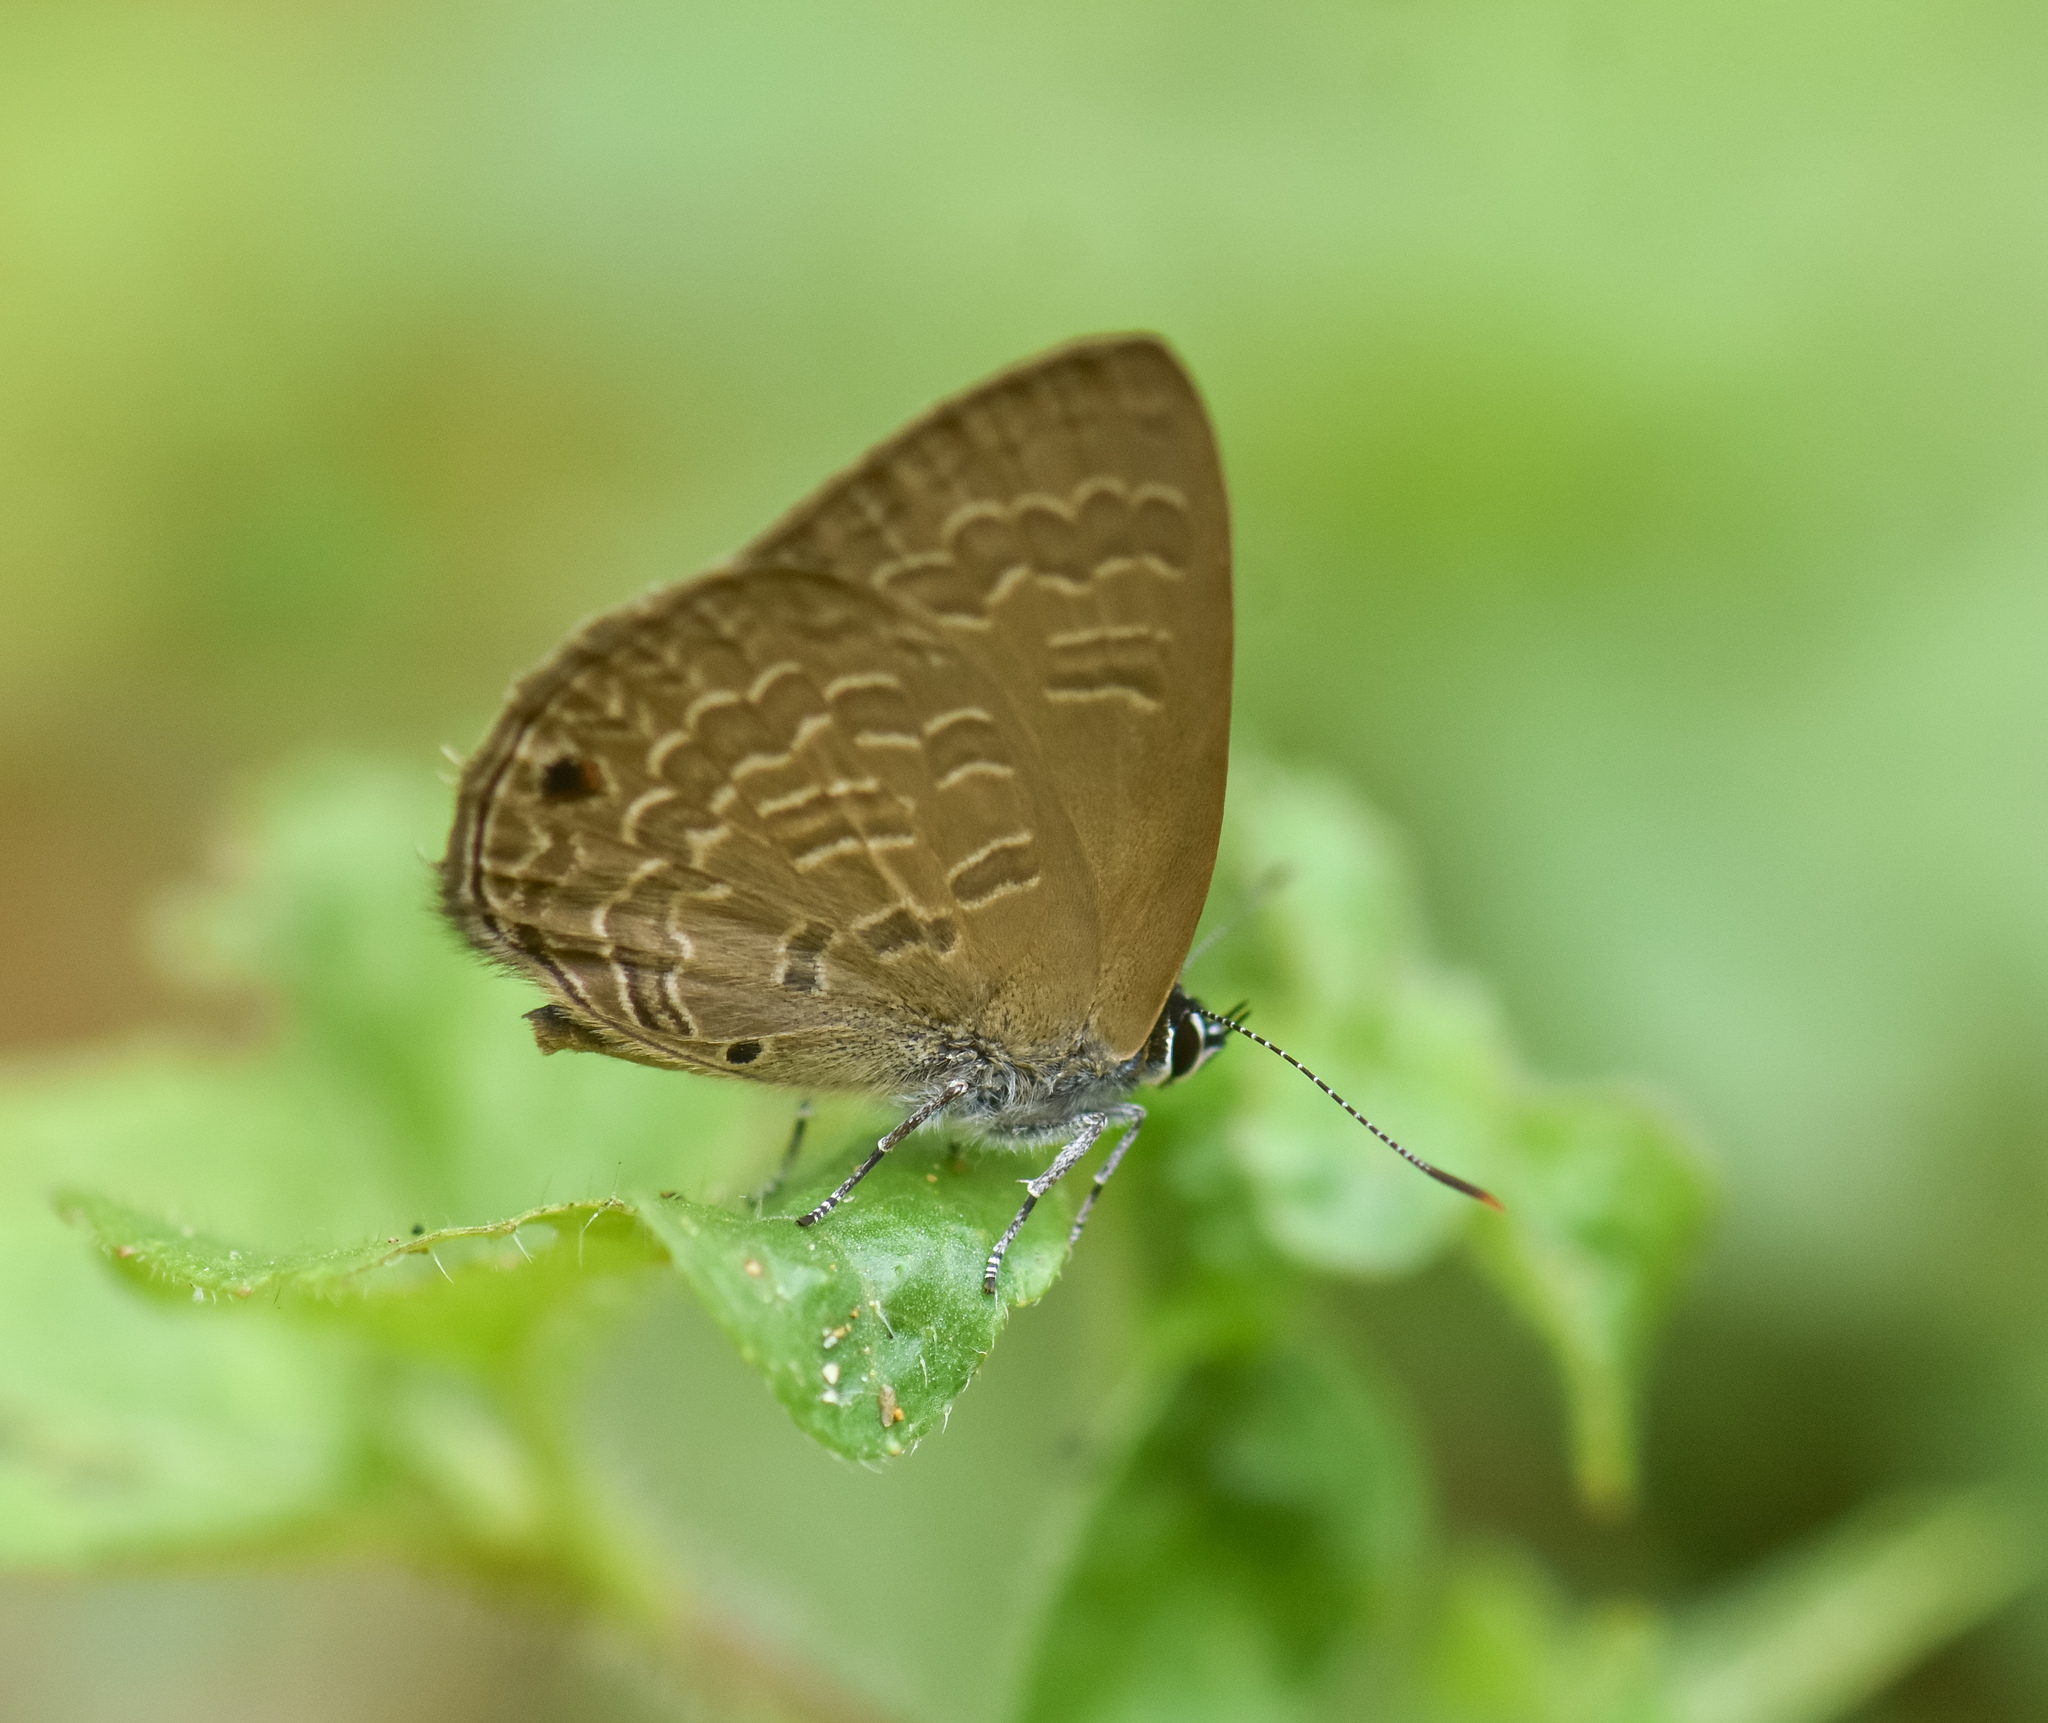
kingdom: Animalia
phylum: Arthropoda
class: Insecta
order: Lepidoptera
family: Lycaenidae
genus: Anthene
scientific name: Anthene emolus
